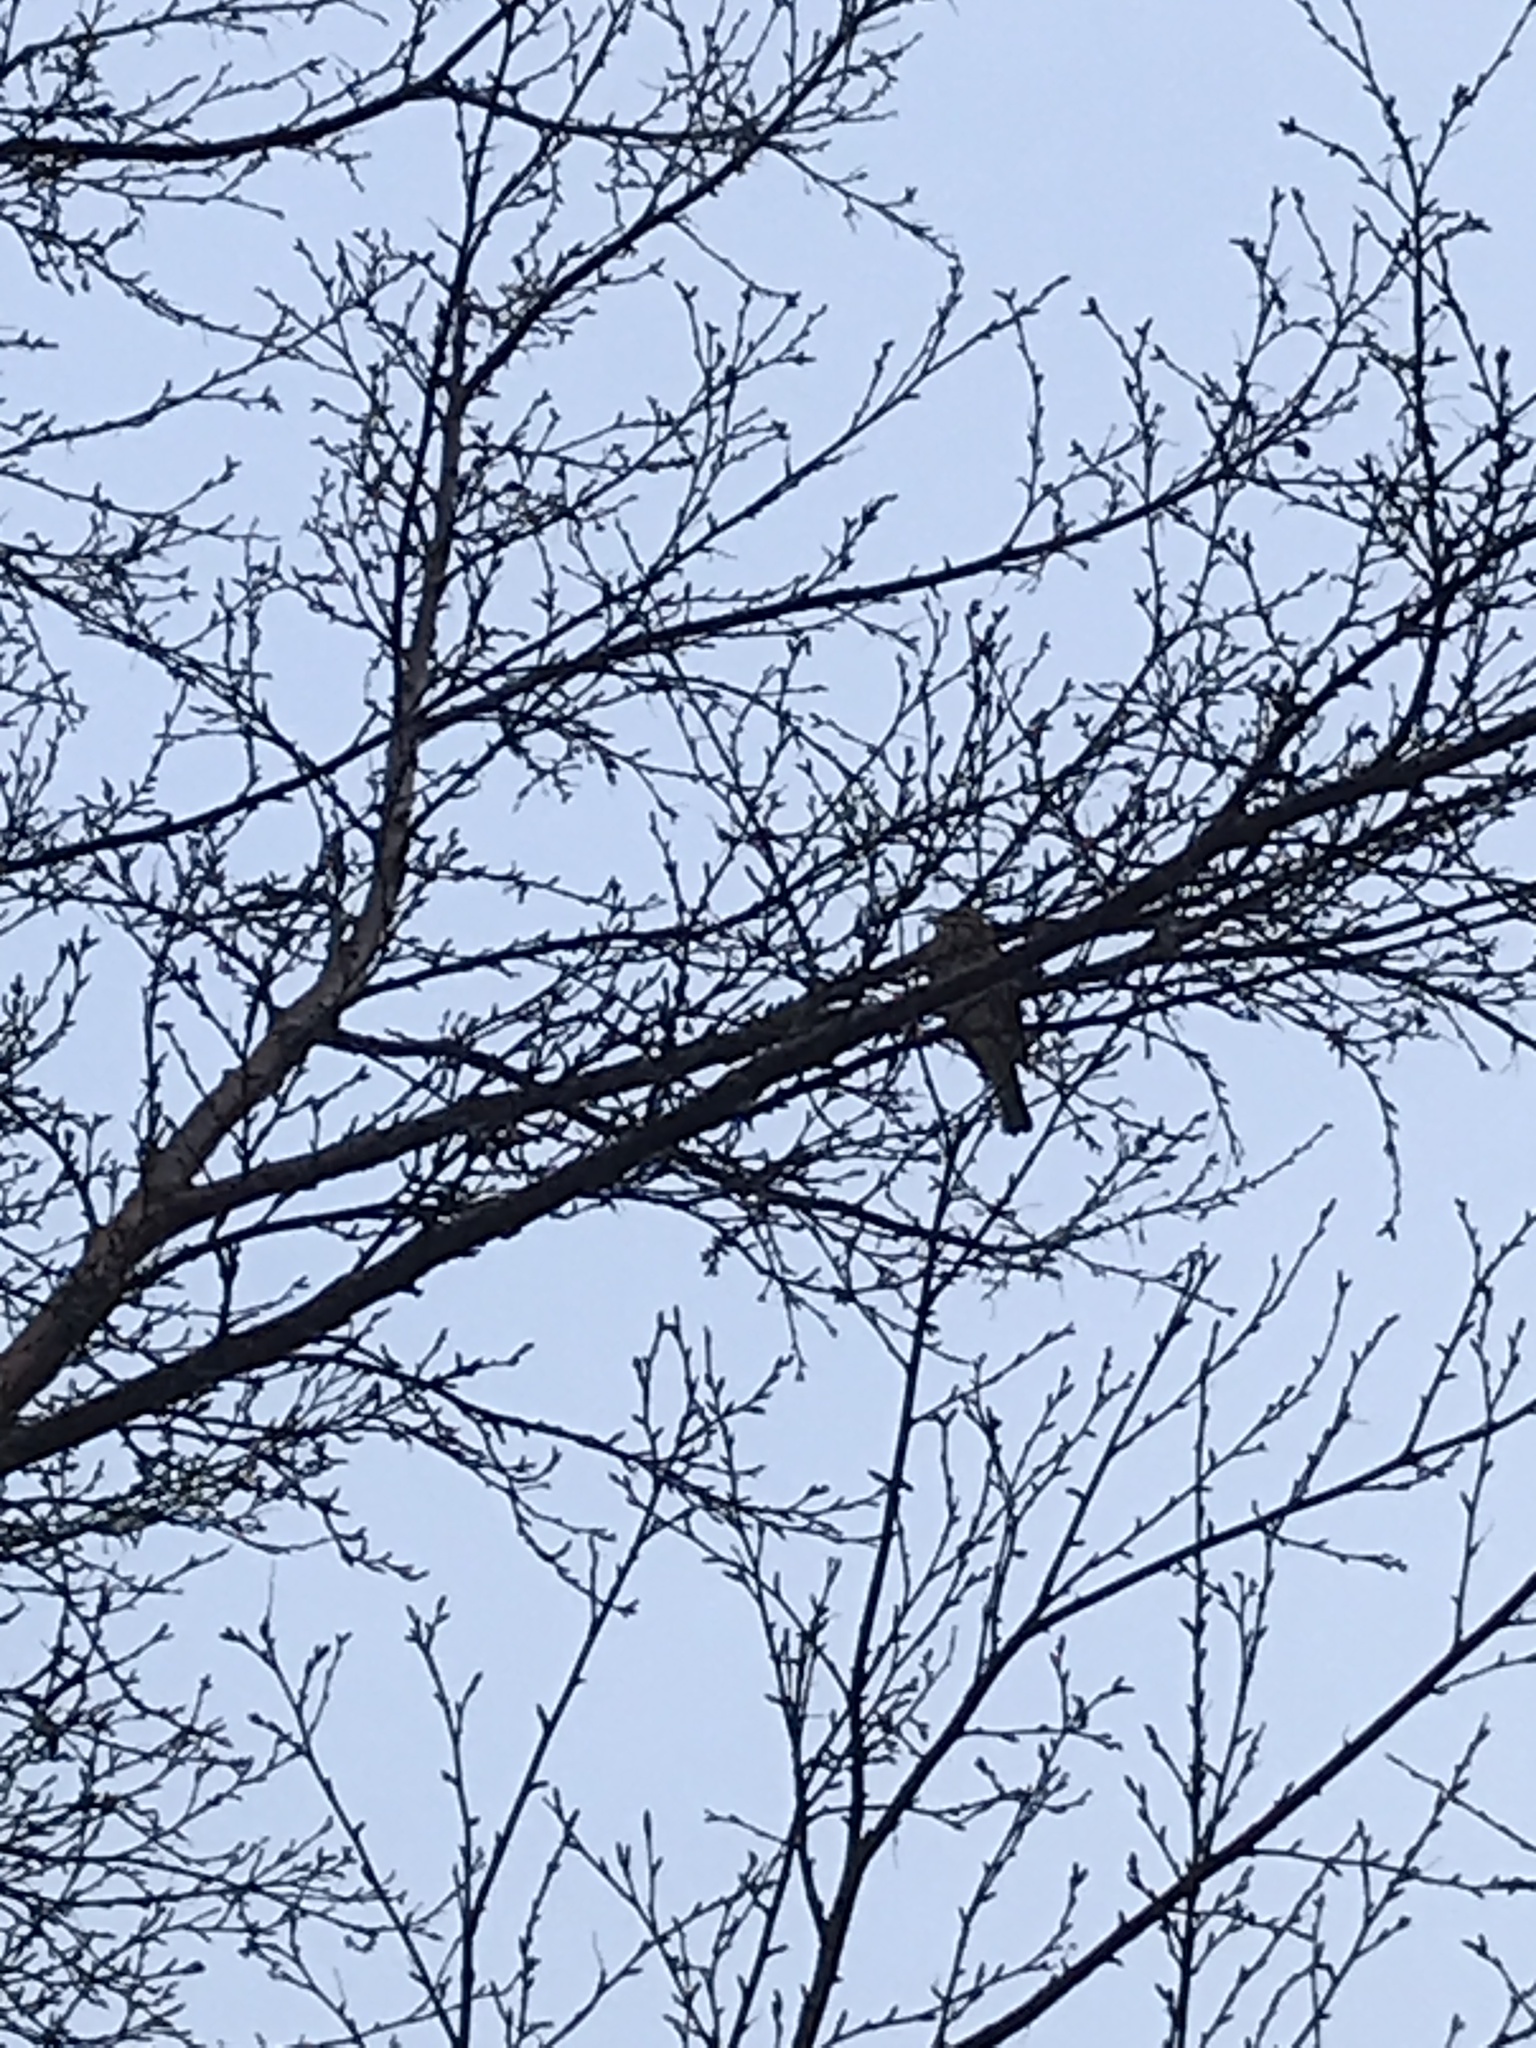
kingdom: Animalia
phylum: Chordata
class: Aves
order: Passeriformes
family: Turdidae
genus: Turdus
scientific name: Turdus iliacus
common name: Redwing
